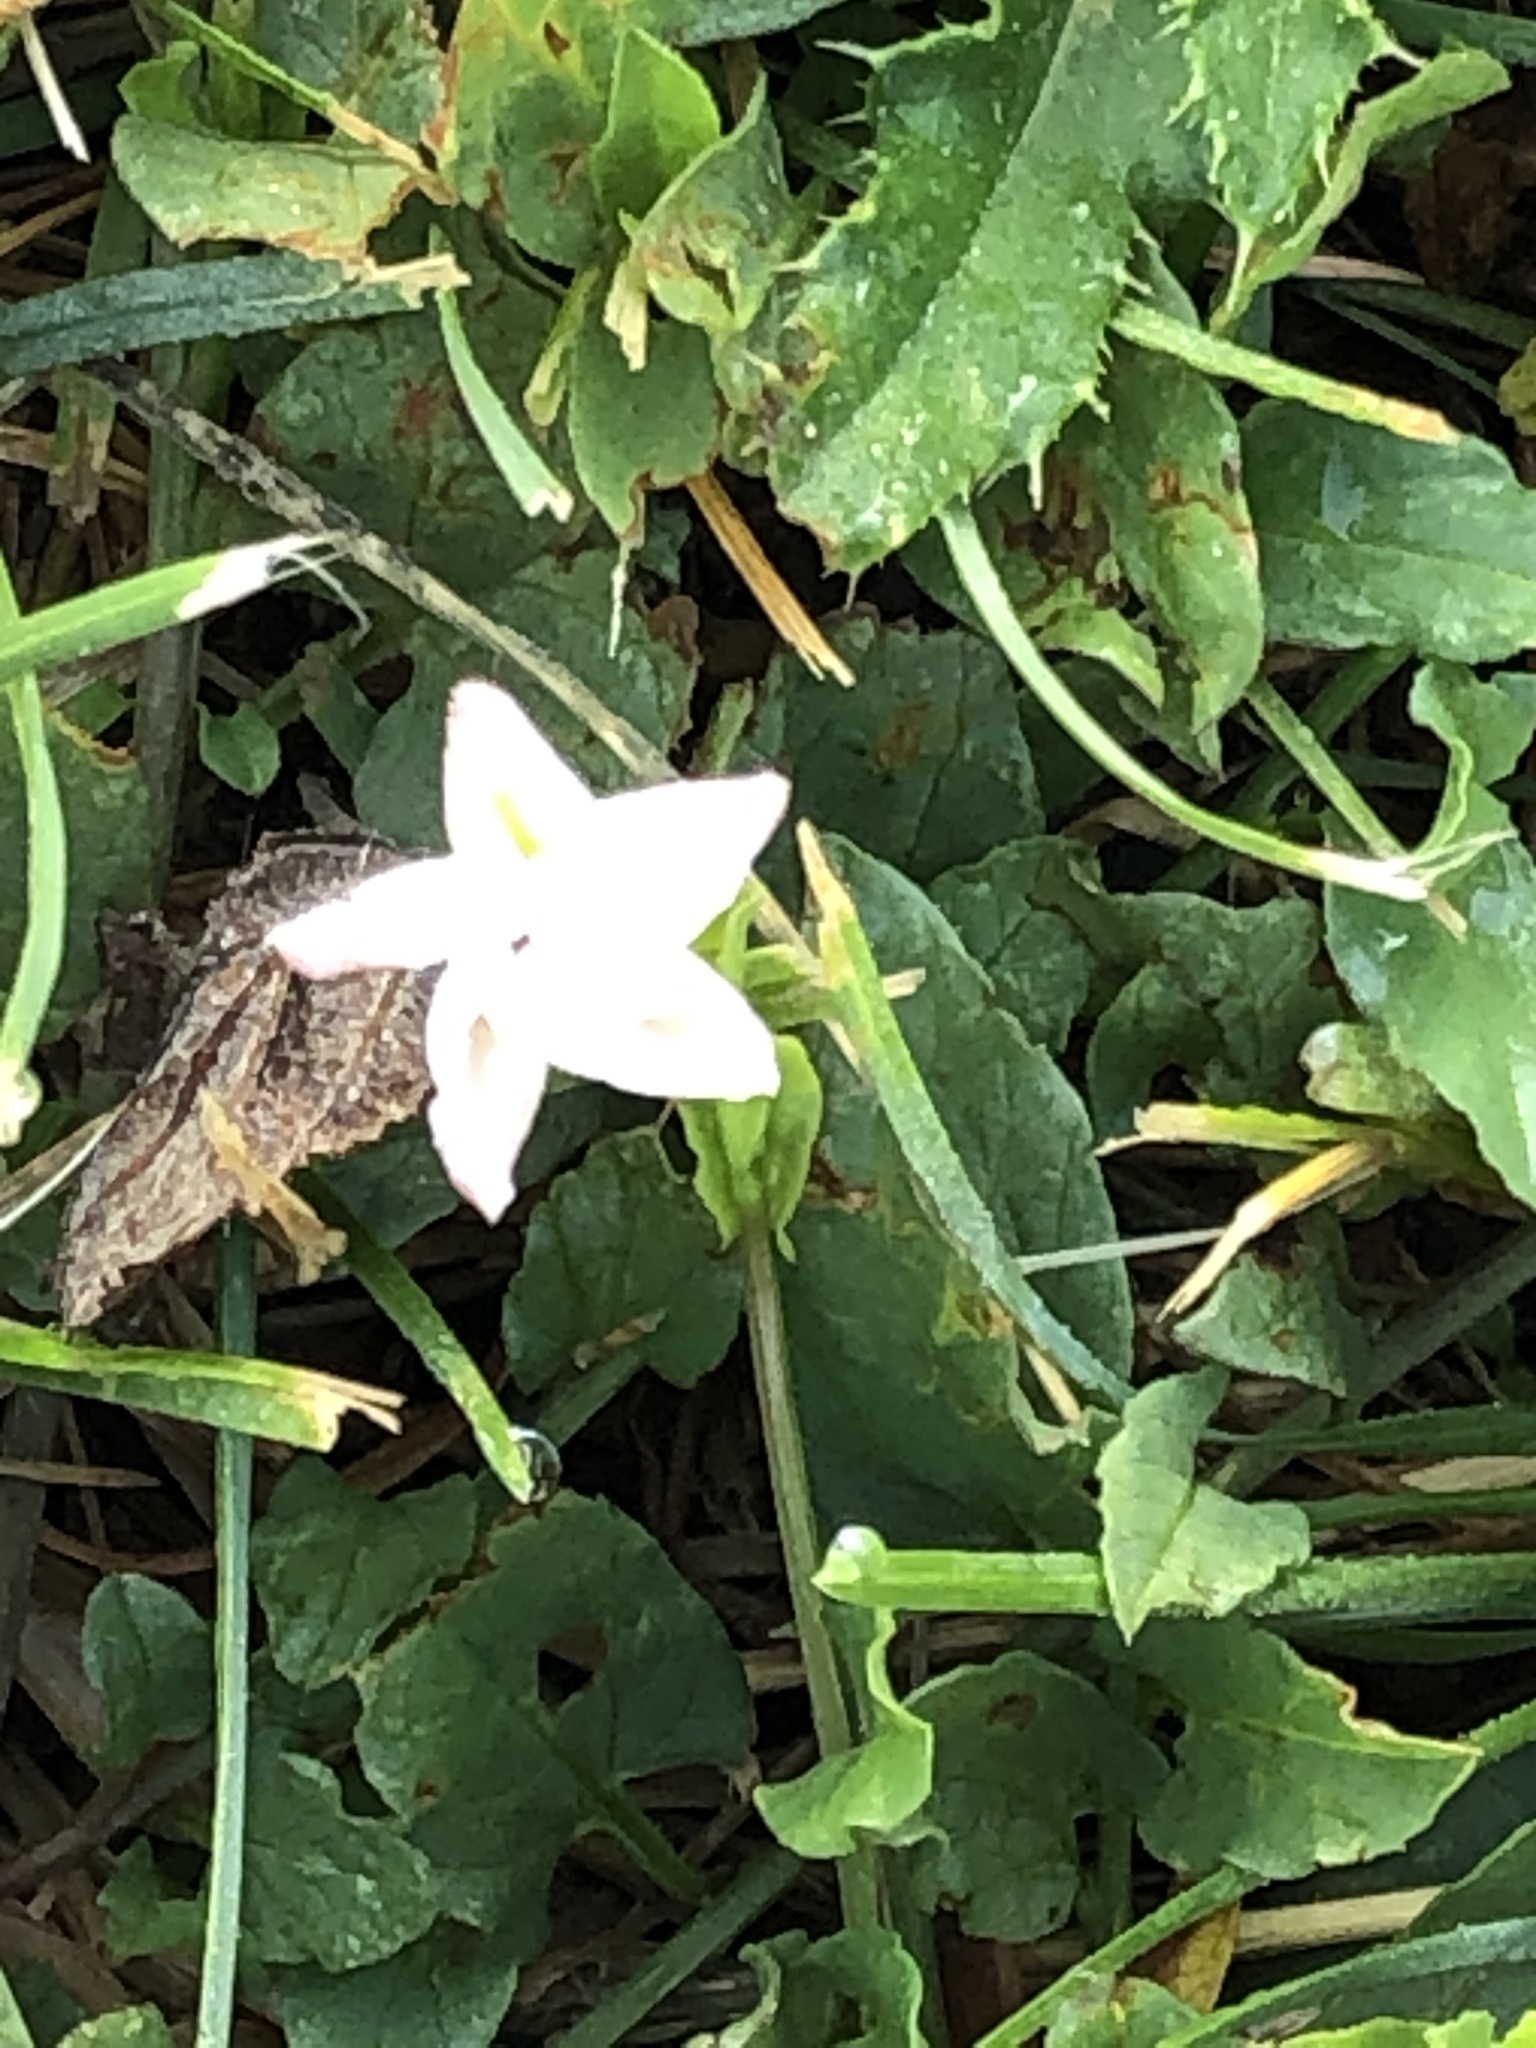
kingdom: Plantae
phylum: Tracheophyta
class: Magnoliopsida
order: Solanales
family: Convolvulaceae
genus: Convolvulus
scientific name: Convolvulus arvensis
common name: Field bindweed
